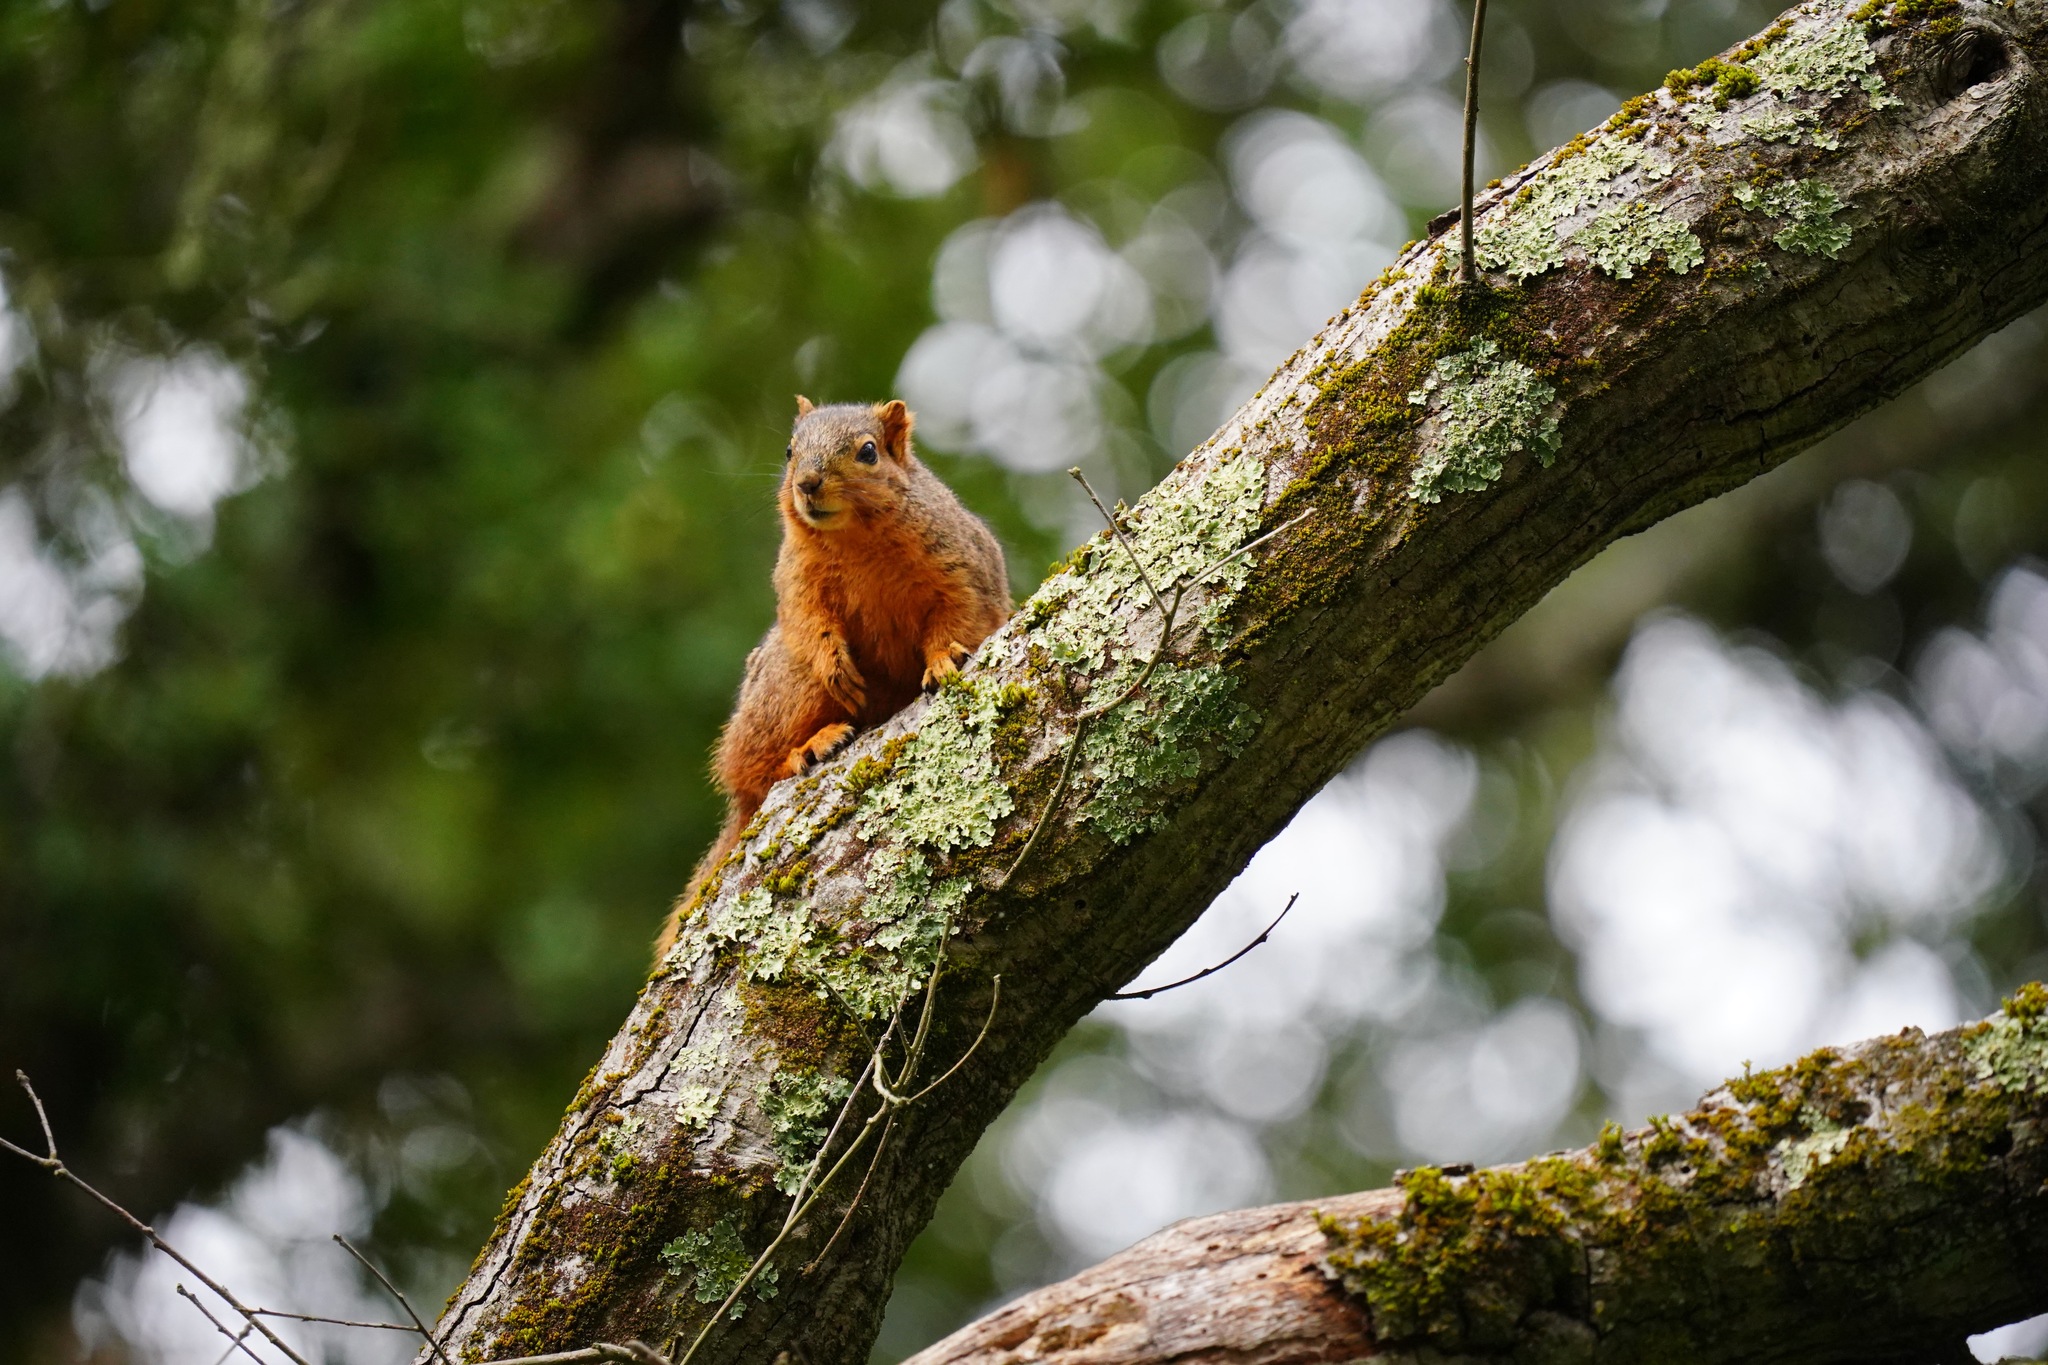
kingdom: Animalia
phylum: Chordata
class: Mammalia
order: Rodentia
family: Sciuridae
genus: Sciurus
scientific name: Sciurus niger
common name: Fox squirrel
